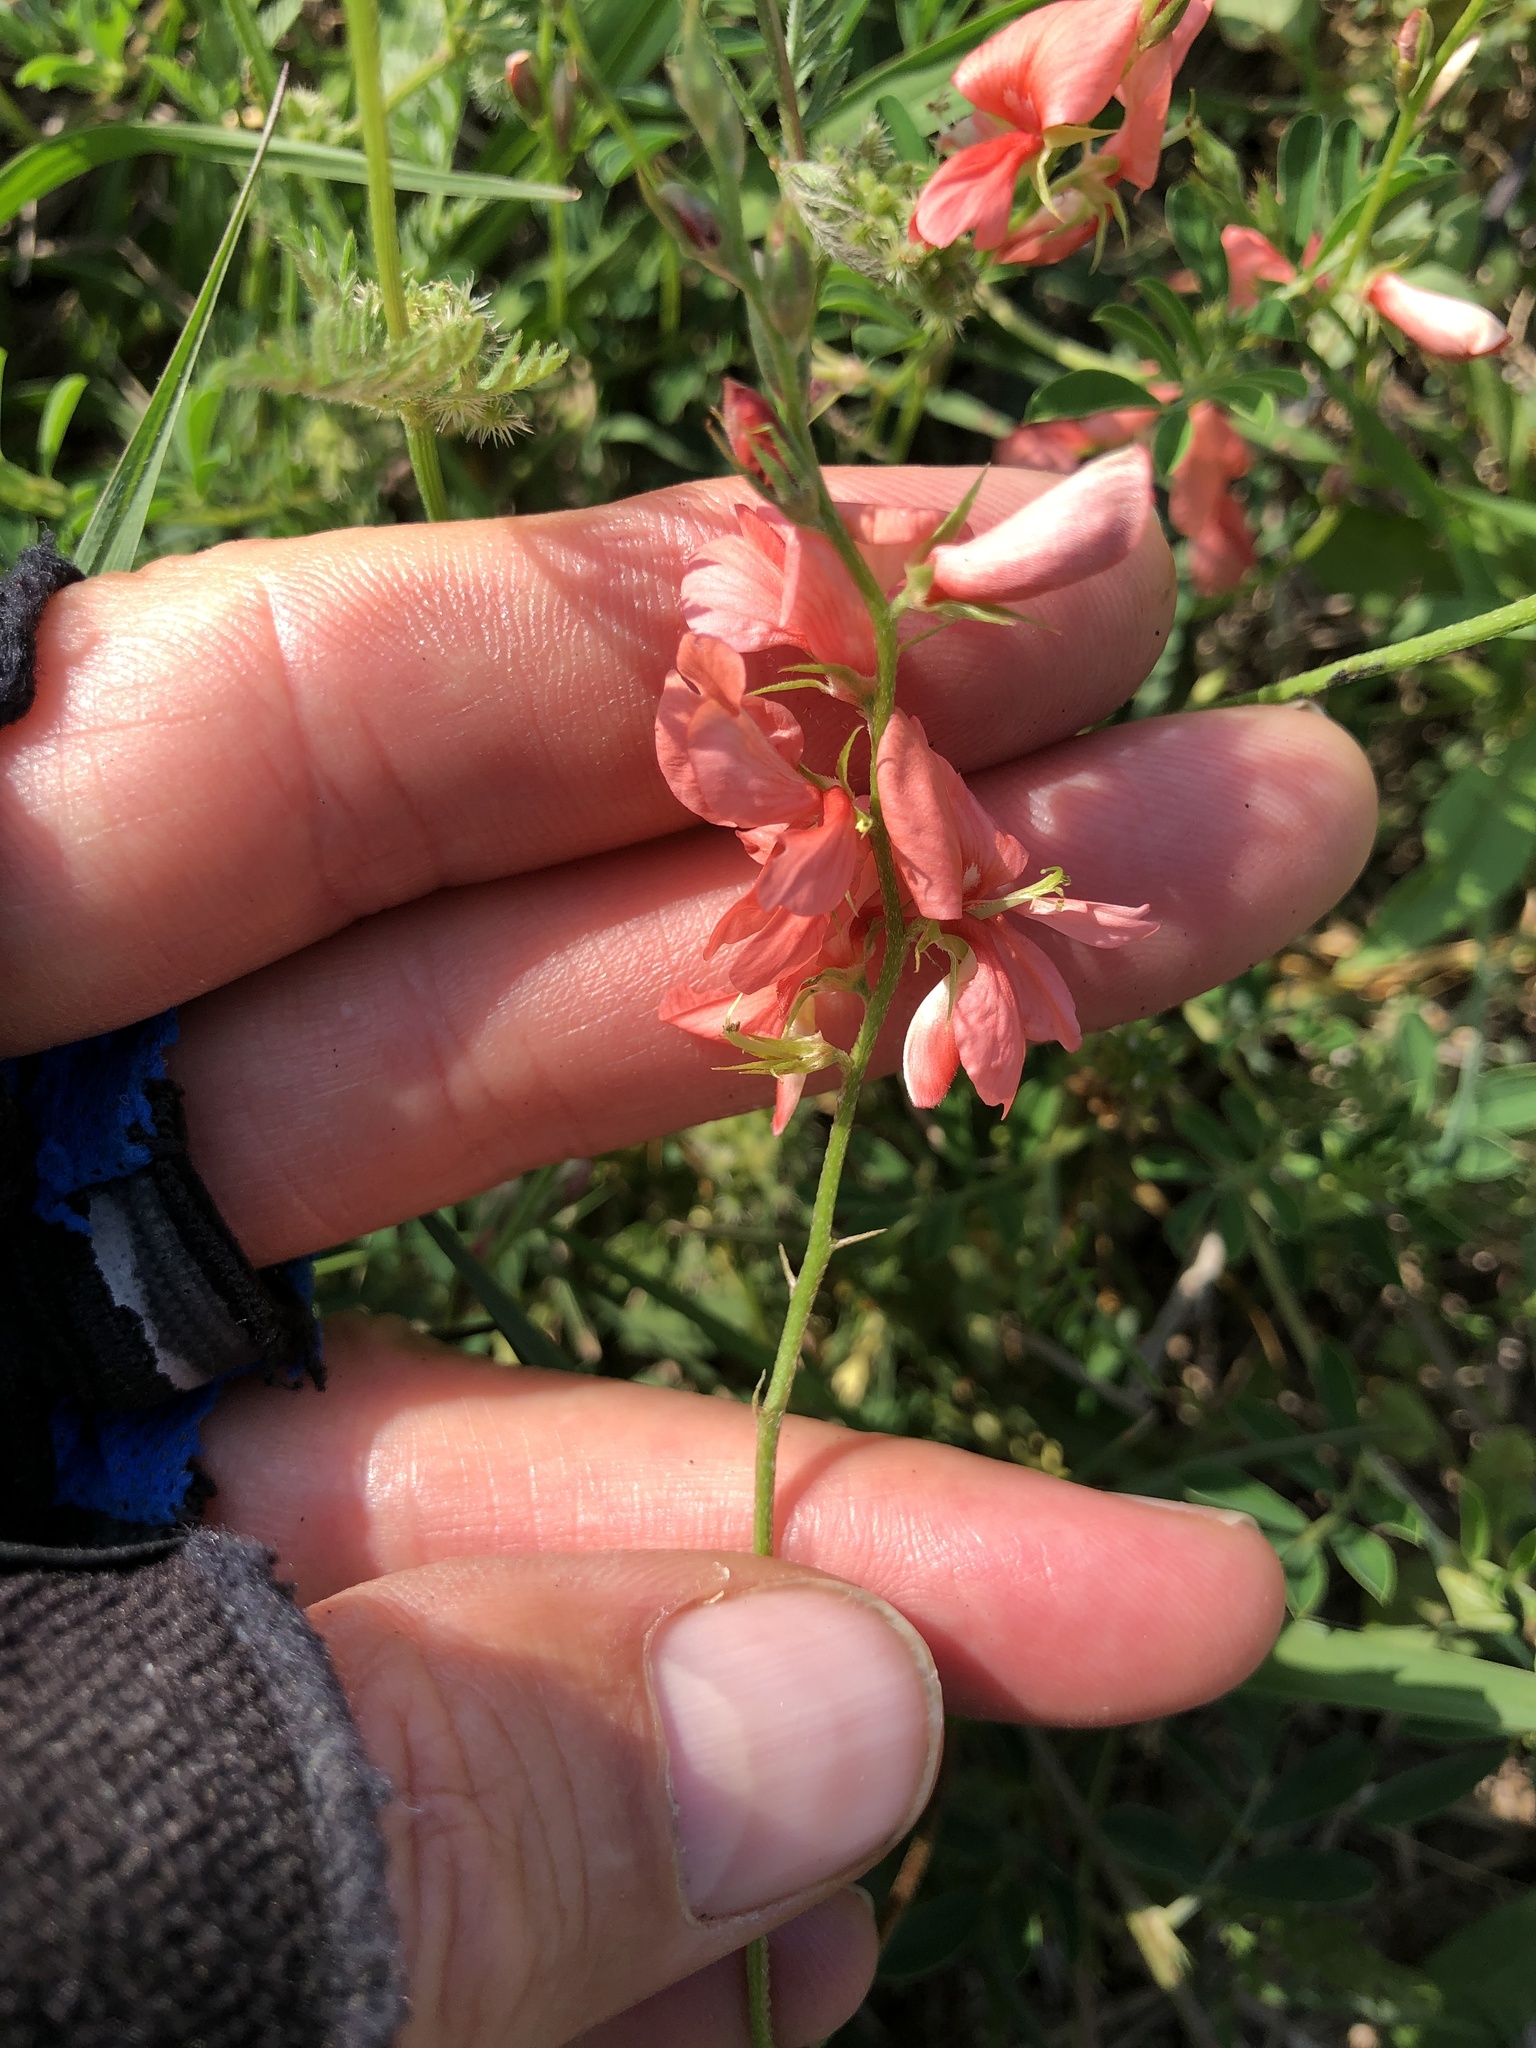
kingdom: Plantae
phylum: Tracheophyta
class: Magnoliopsida
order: Fabales
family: Fabaceae
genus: Indigofera
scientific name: Indigofera miniata
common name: Coast indigo
